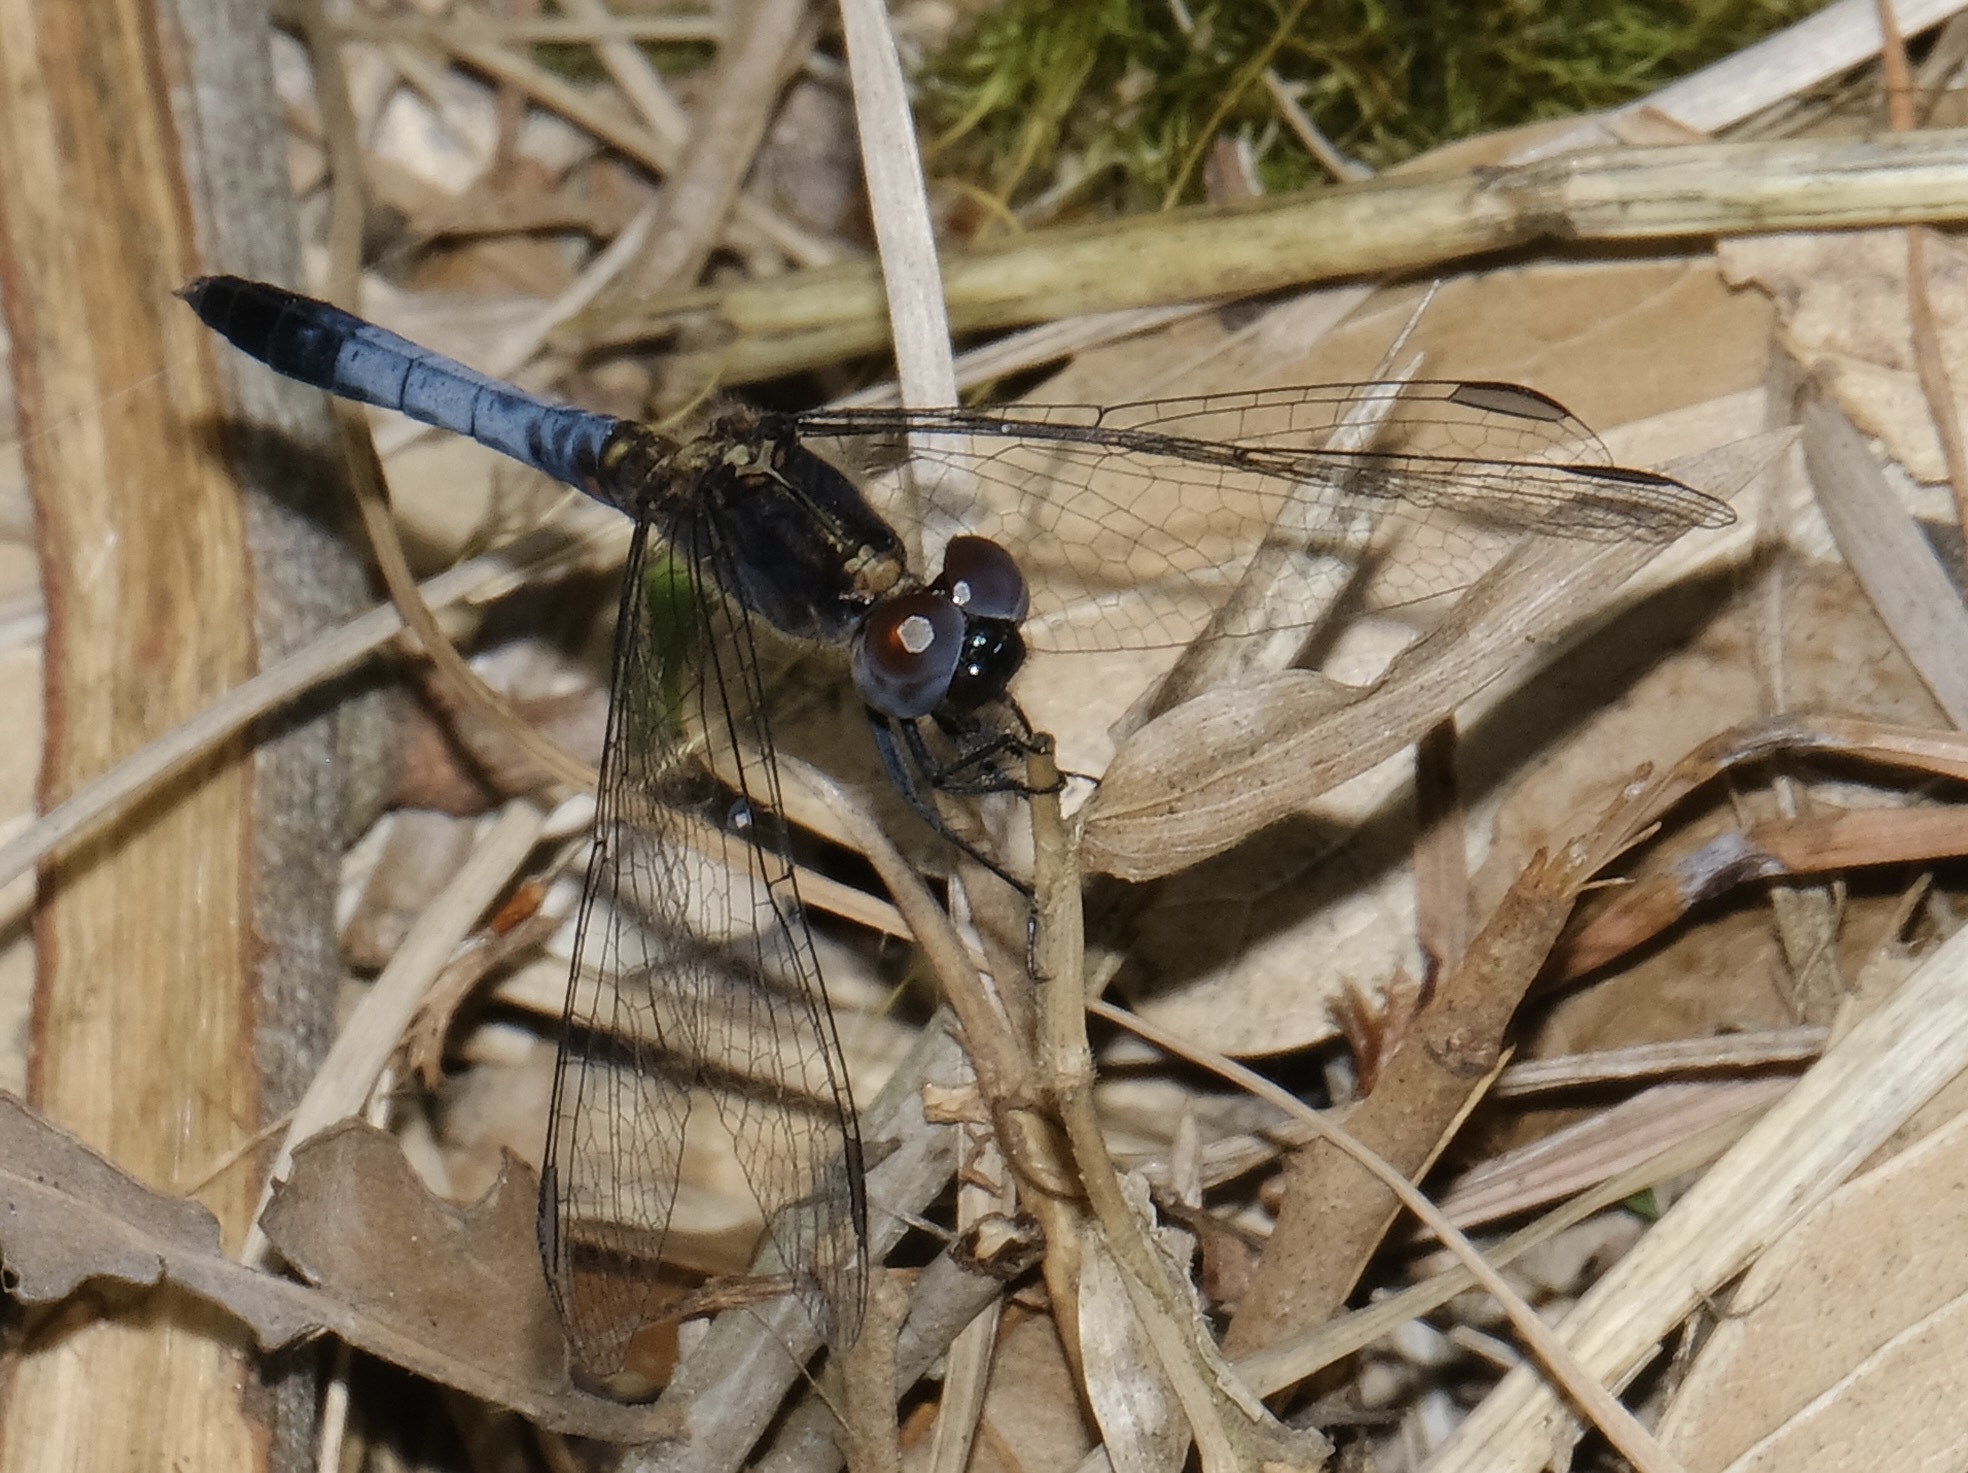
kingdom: Animalia
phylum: Arthropoda
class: Insecta
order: Odonata
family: Libellulidae
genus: Erythrodiplax
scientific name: Erythrodiplax minuscula
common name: Little blue dragonlet
